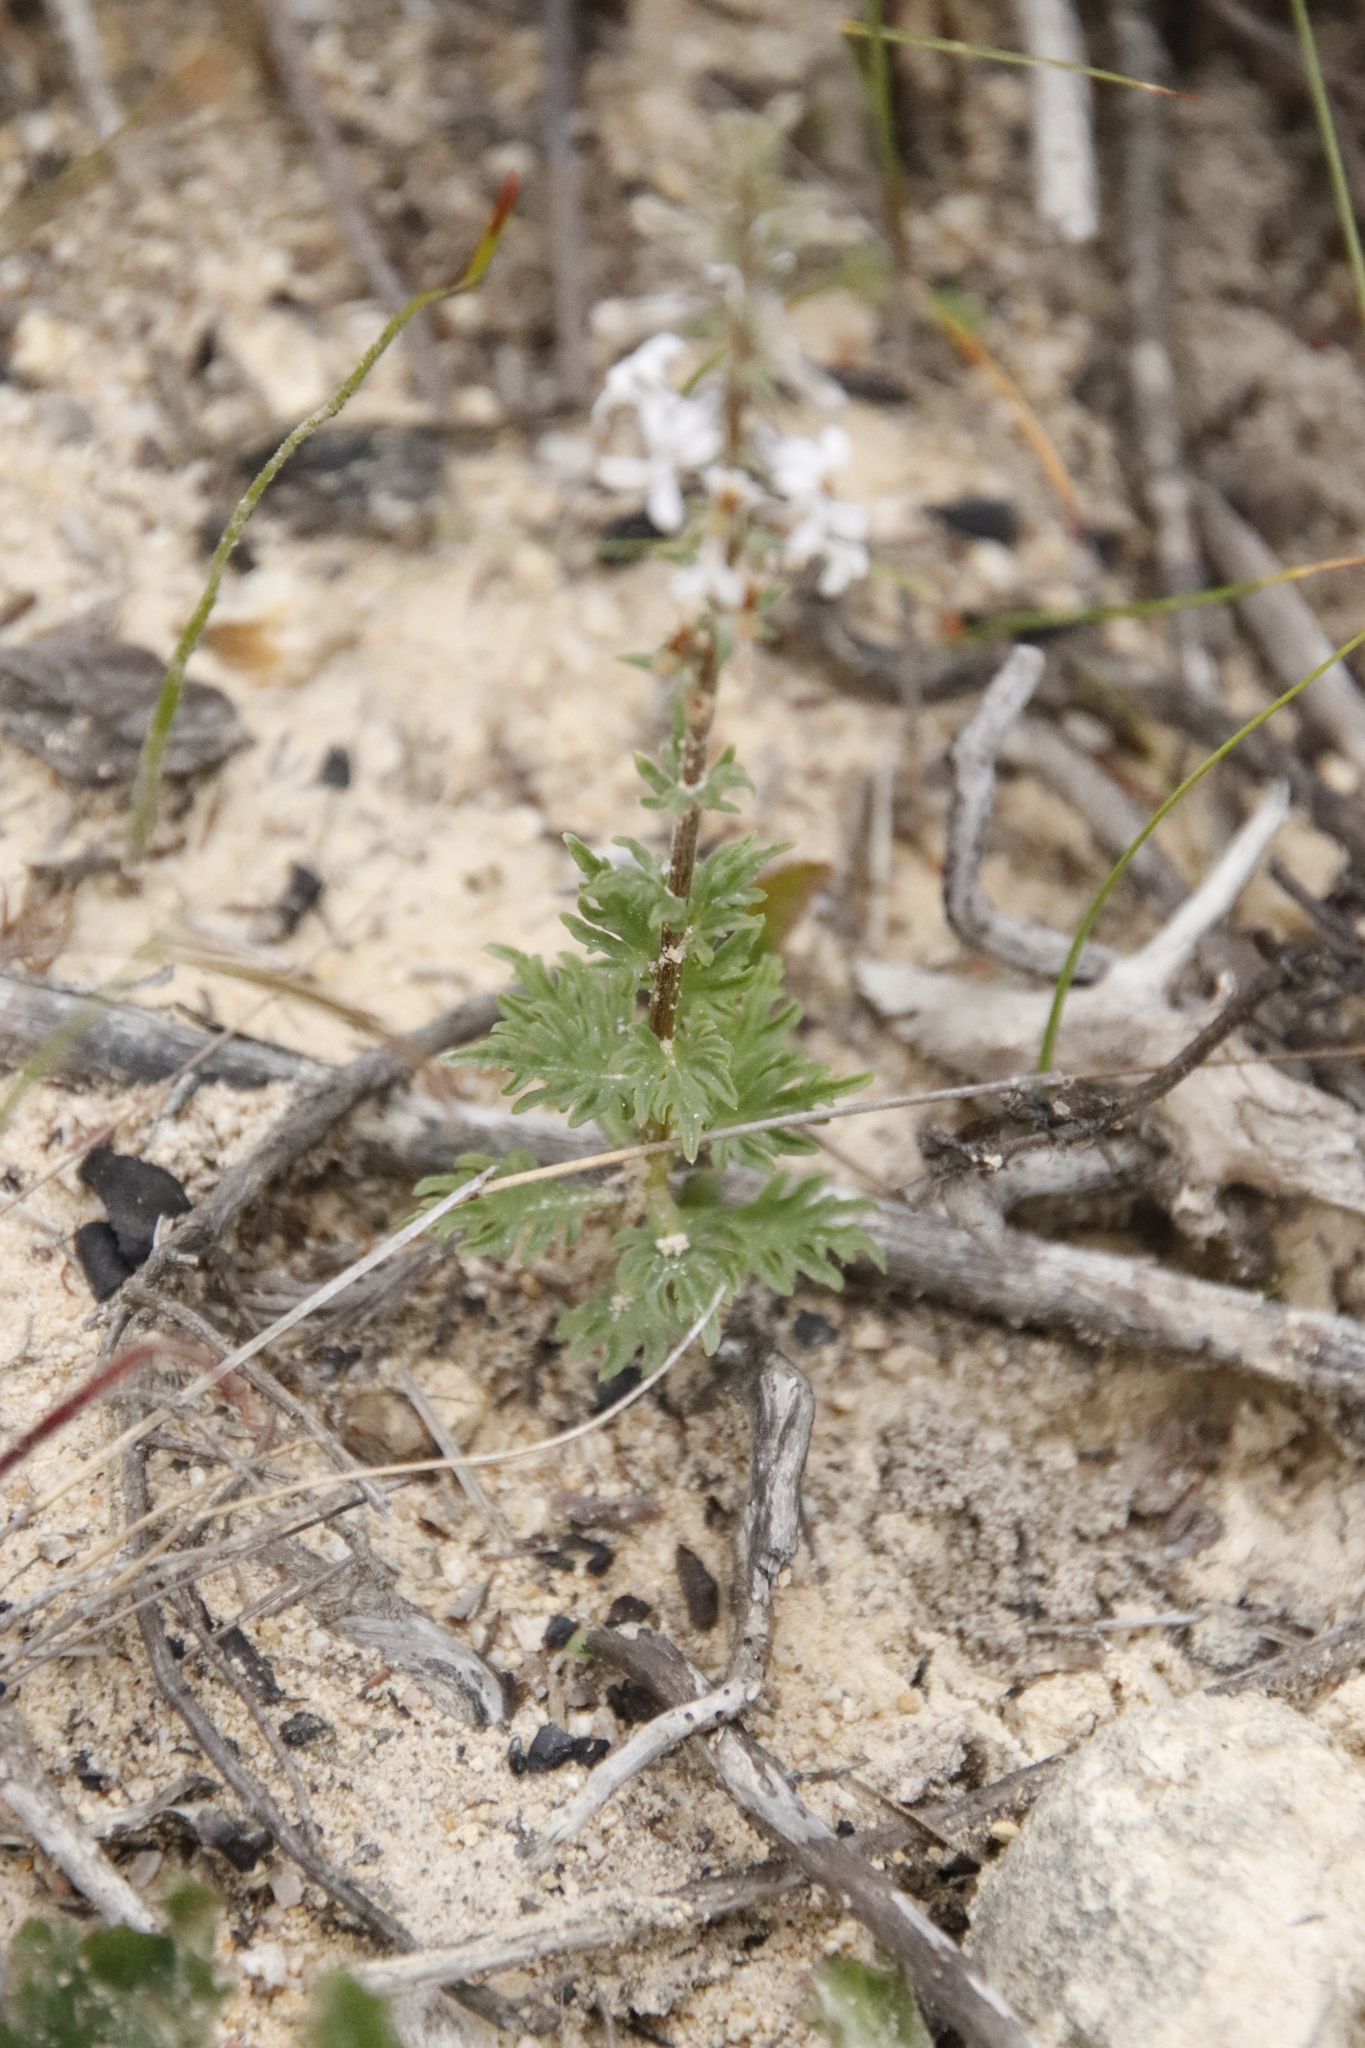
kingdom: Plantae
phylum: Tracheophyta
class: Magnoliopsida
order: Asterales
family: Campanulaceae
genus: Cyphia
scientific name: Cyphia volubilis
